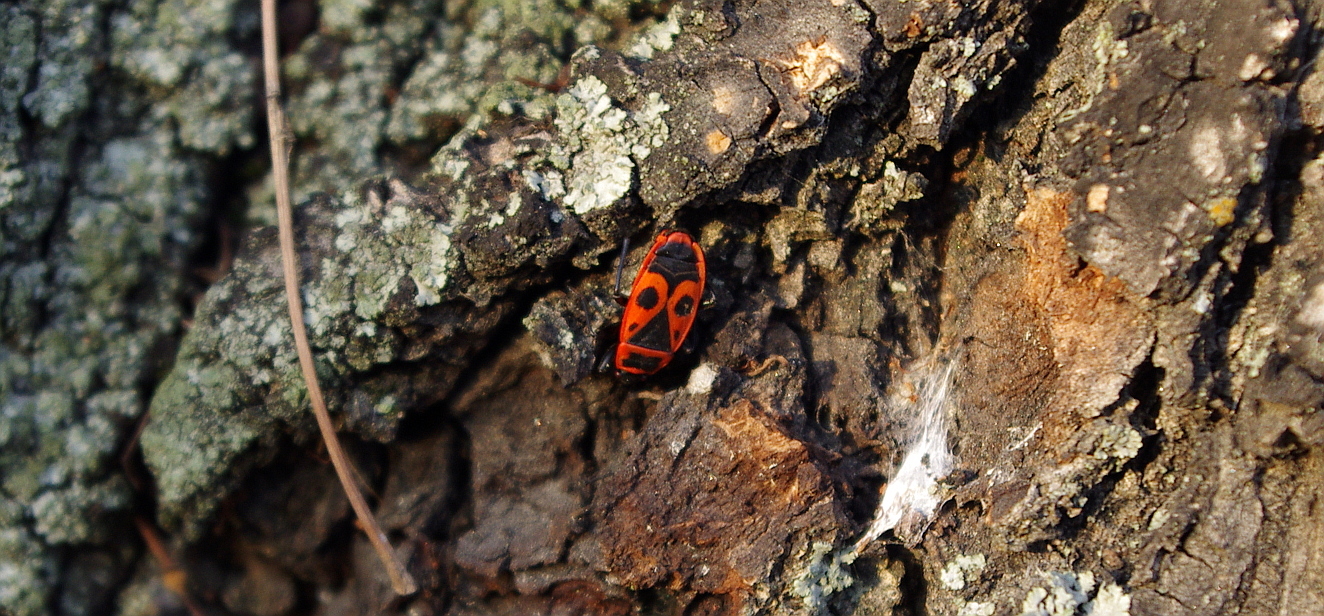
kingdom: Animalia
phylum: Arthropoda
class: Insecta
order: Hemiptera
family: Pyrrhocoridae
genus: Pyrrhocoris
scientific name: Pyrrhocoris apterus
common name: Firebug
